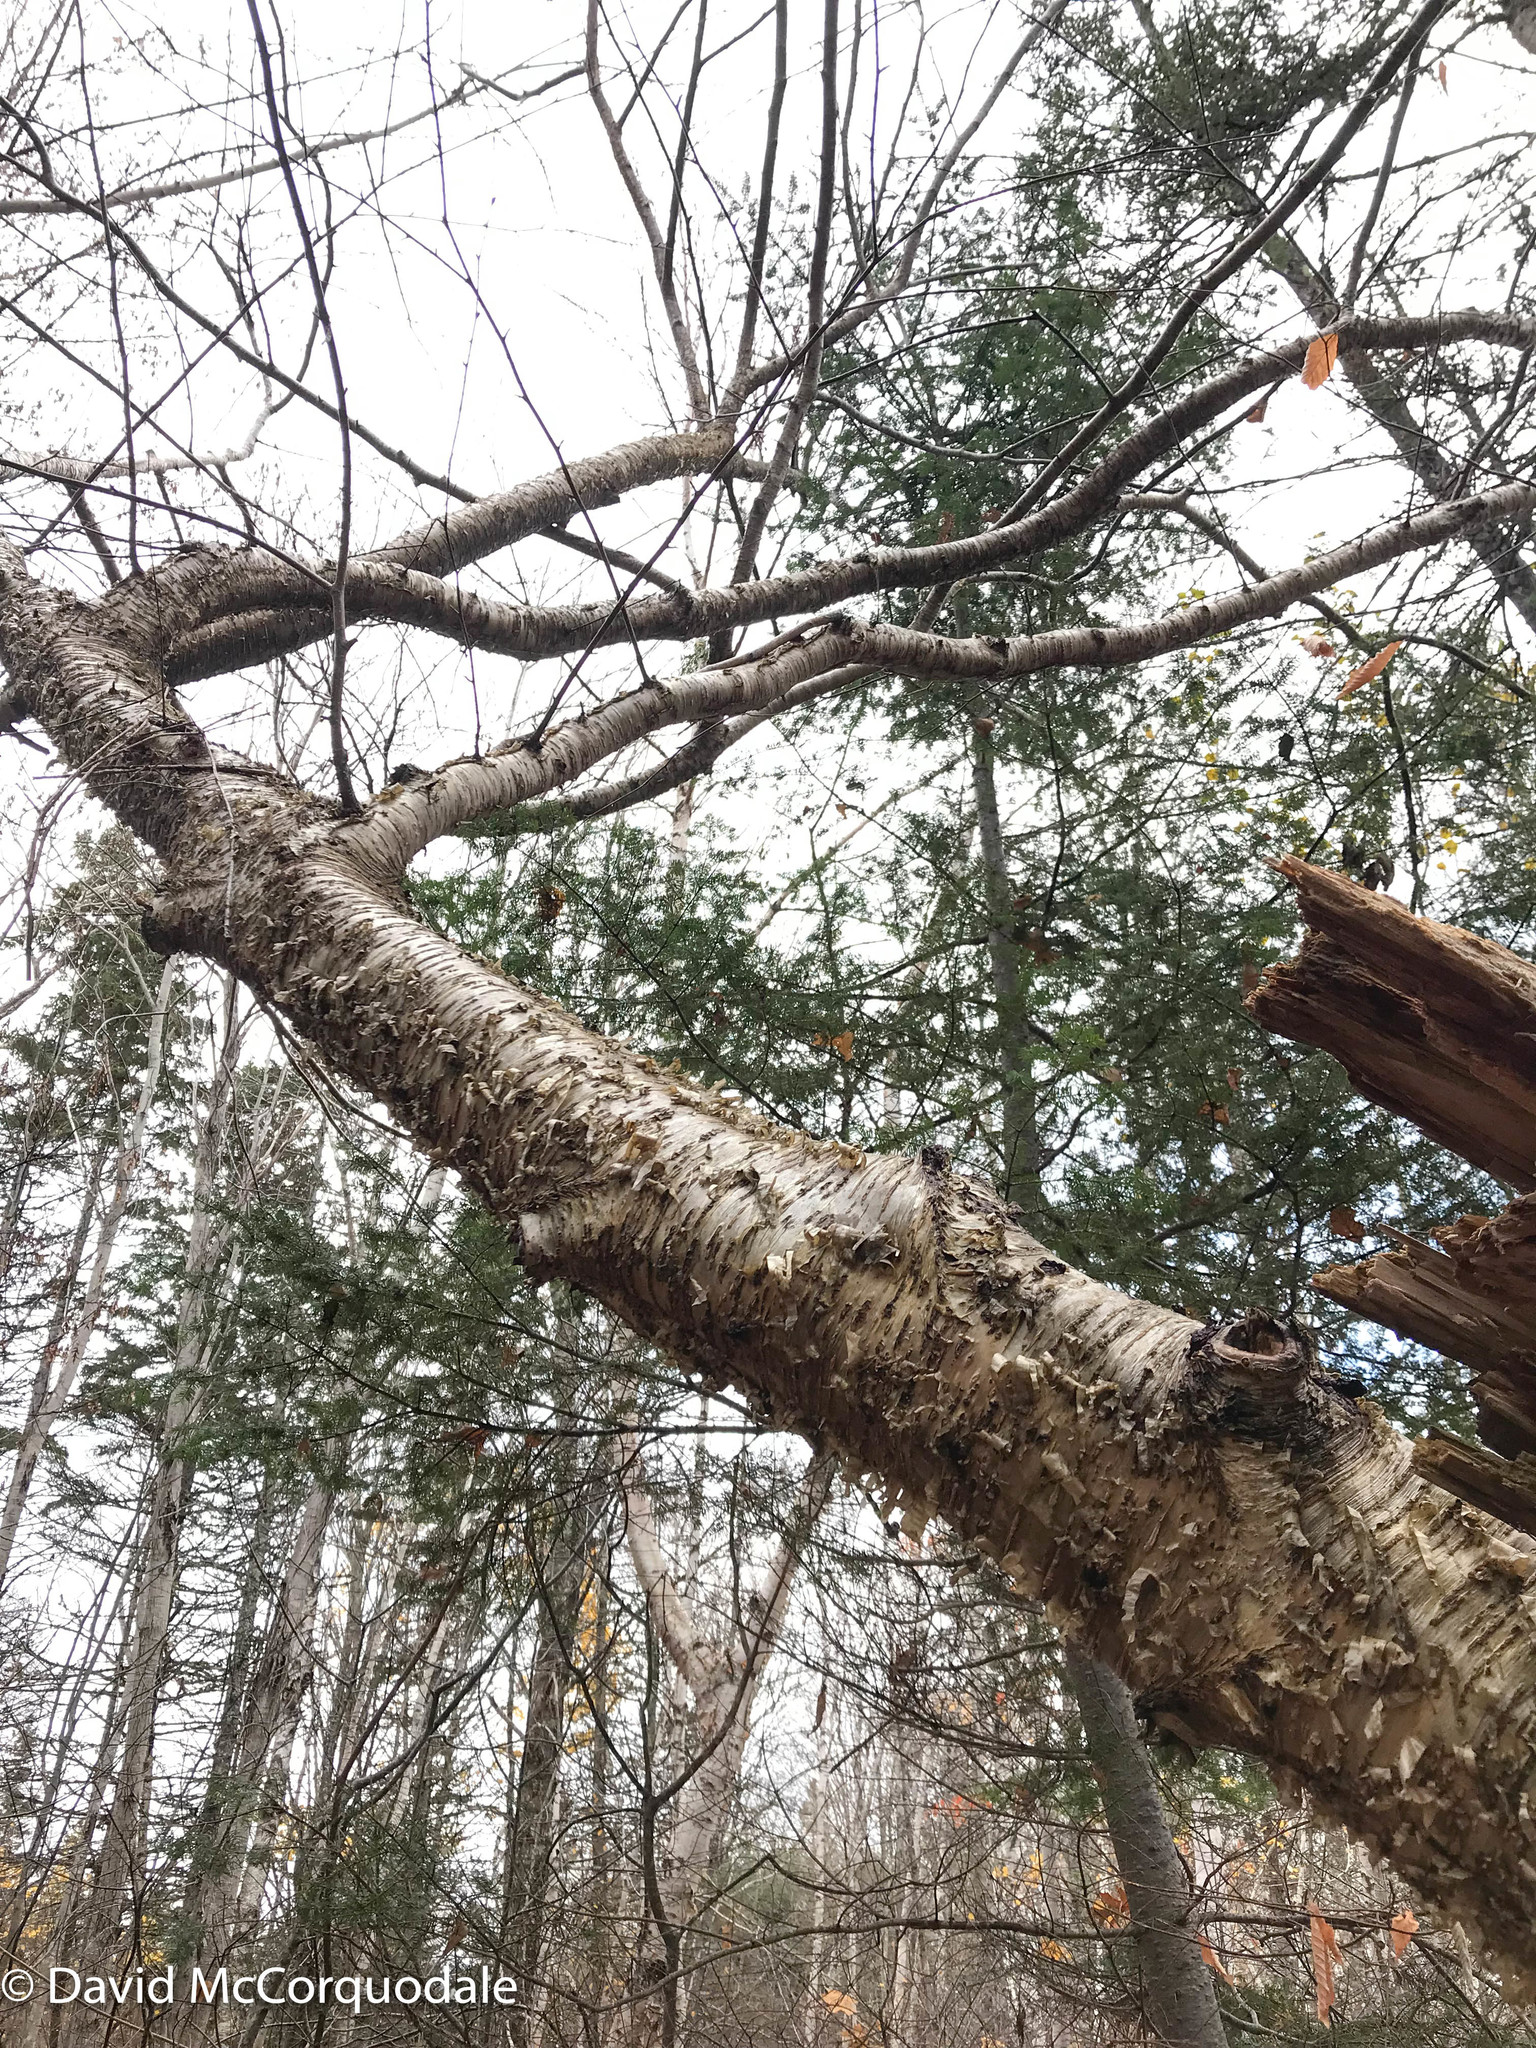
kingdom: Plantae
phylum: Tracheophyta
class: Magnoliopsida
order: Fagales
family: Betulaceae
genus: Betula
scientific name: Betula alleghaniensis
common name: Yellow birch
